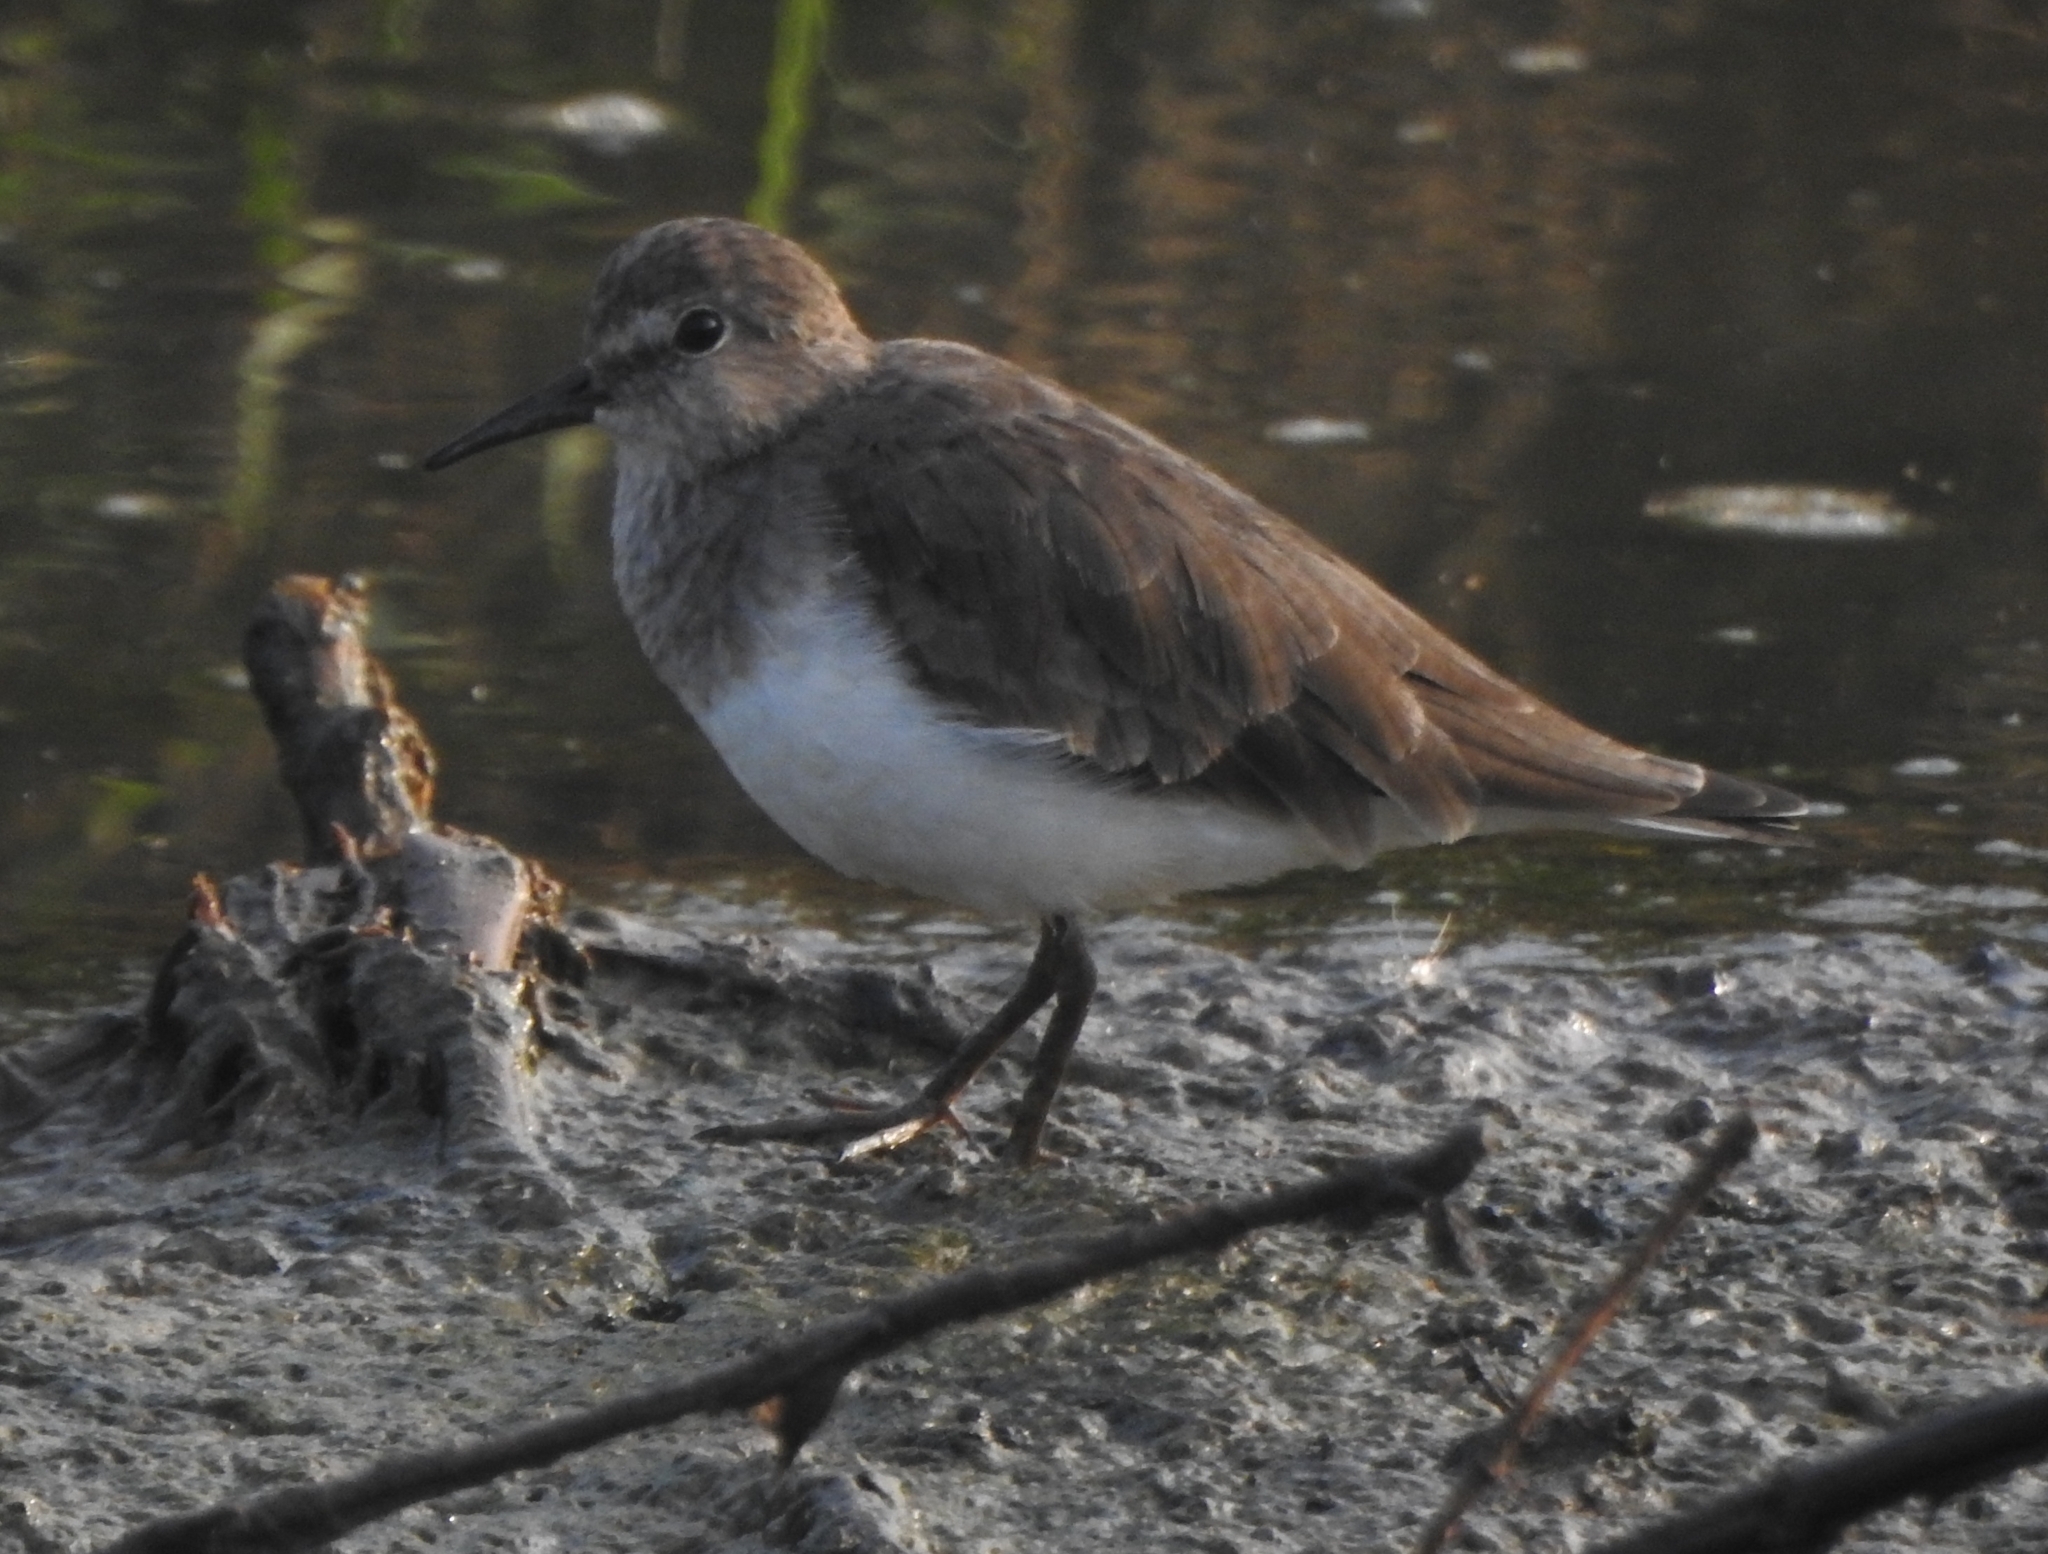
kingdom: Animalia
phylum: Chordata
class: Aves
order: Charadriiformes
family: Scolopacidae
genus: Calidris
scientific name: Calidris temminckii
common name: Temminck's stint
